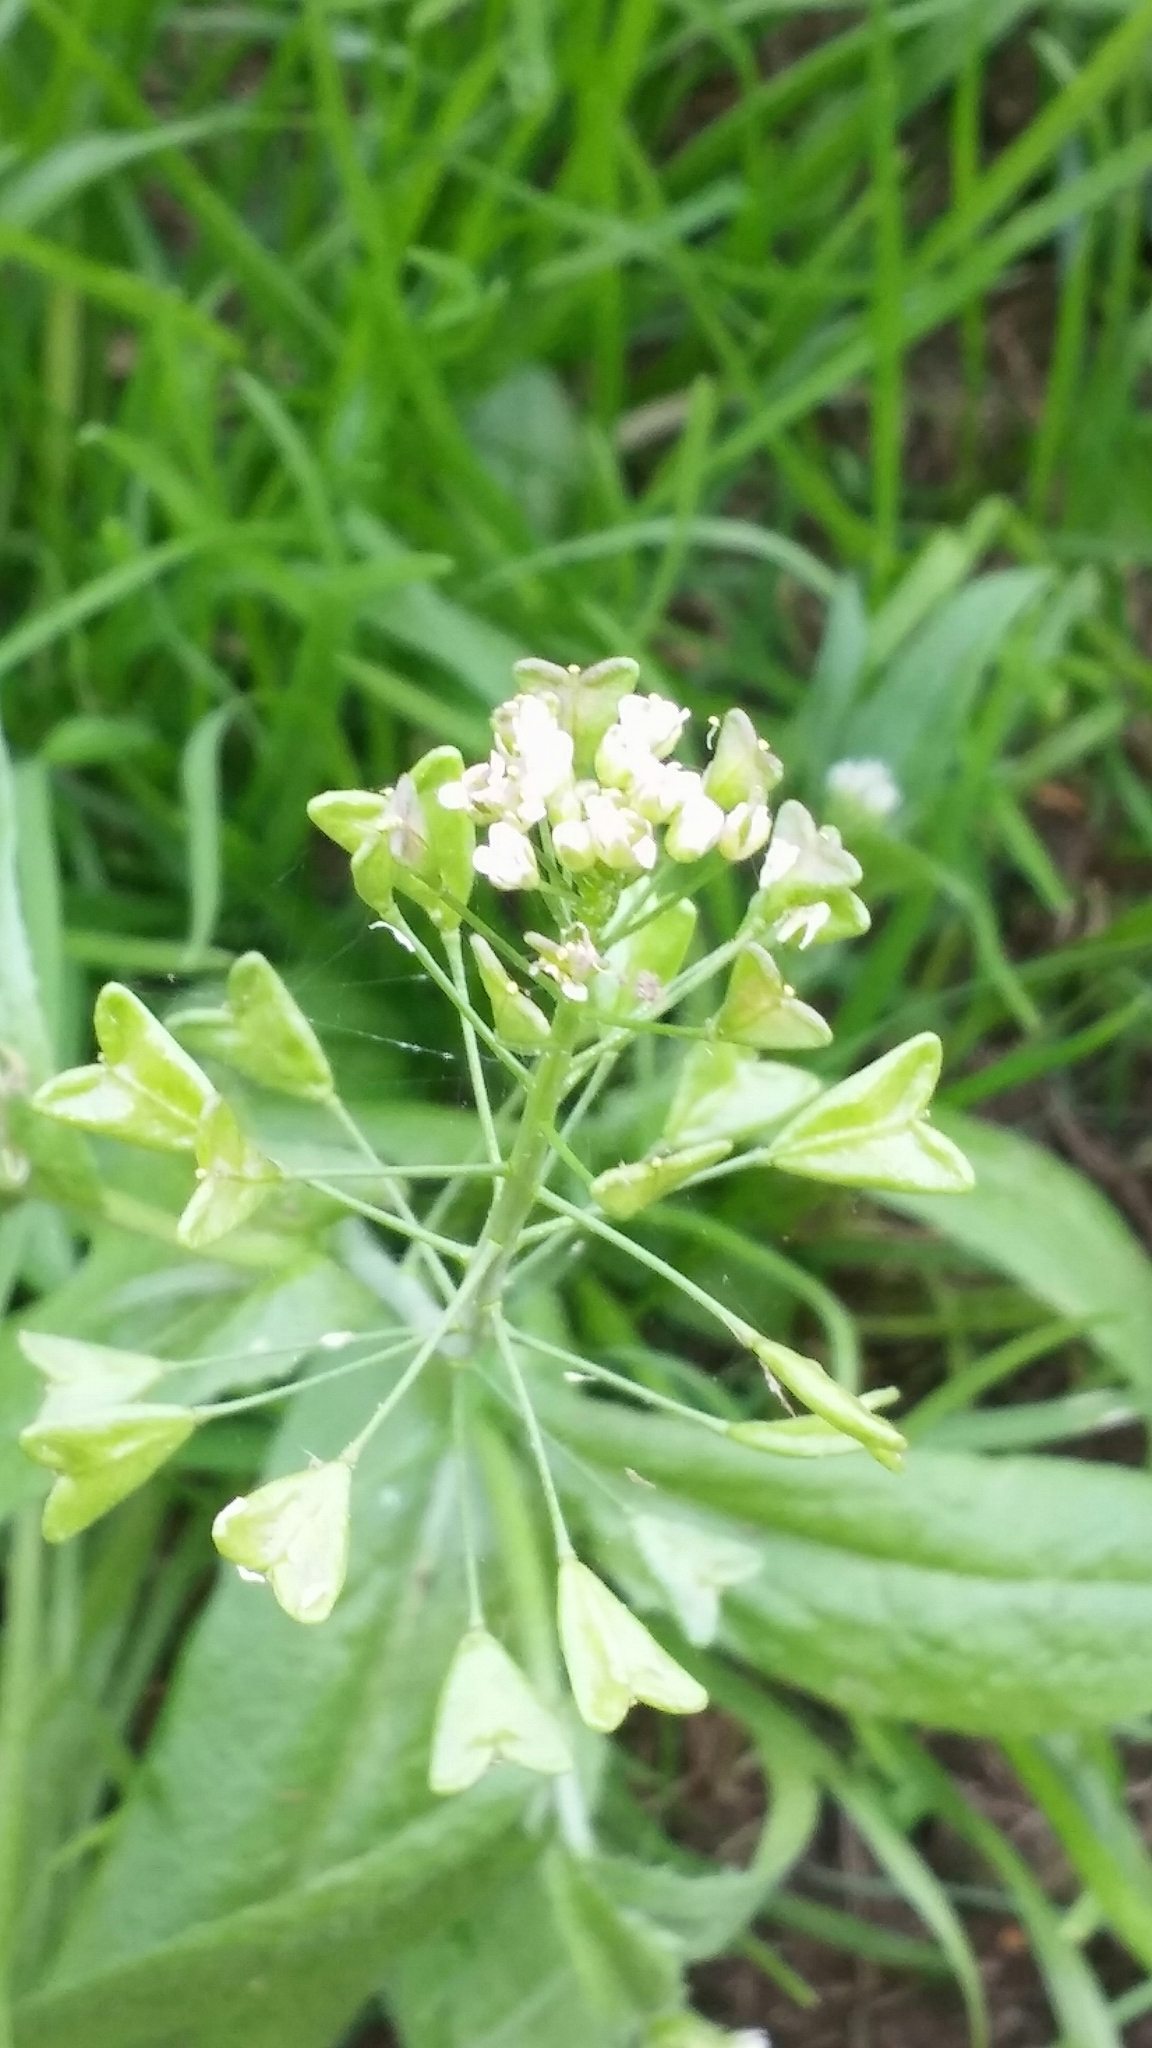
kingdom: Plantae
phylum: Tracheophyta
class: Magnoliopsida
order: Brassicales
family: Brassicaceae
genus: Capsella
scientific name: Capsella bursa-pastoris
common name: Shepherd's purse
